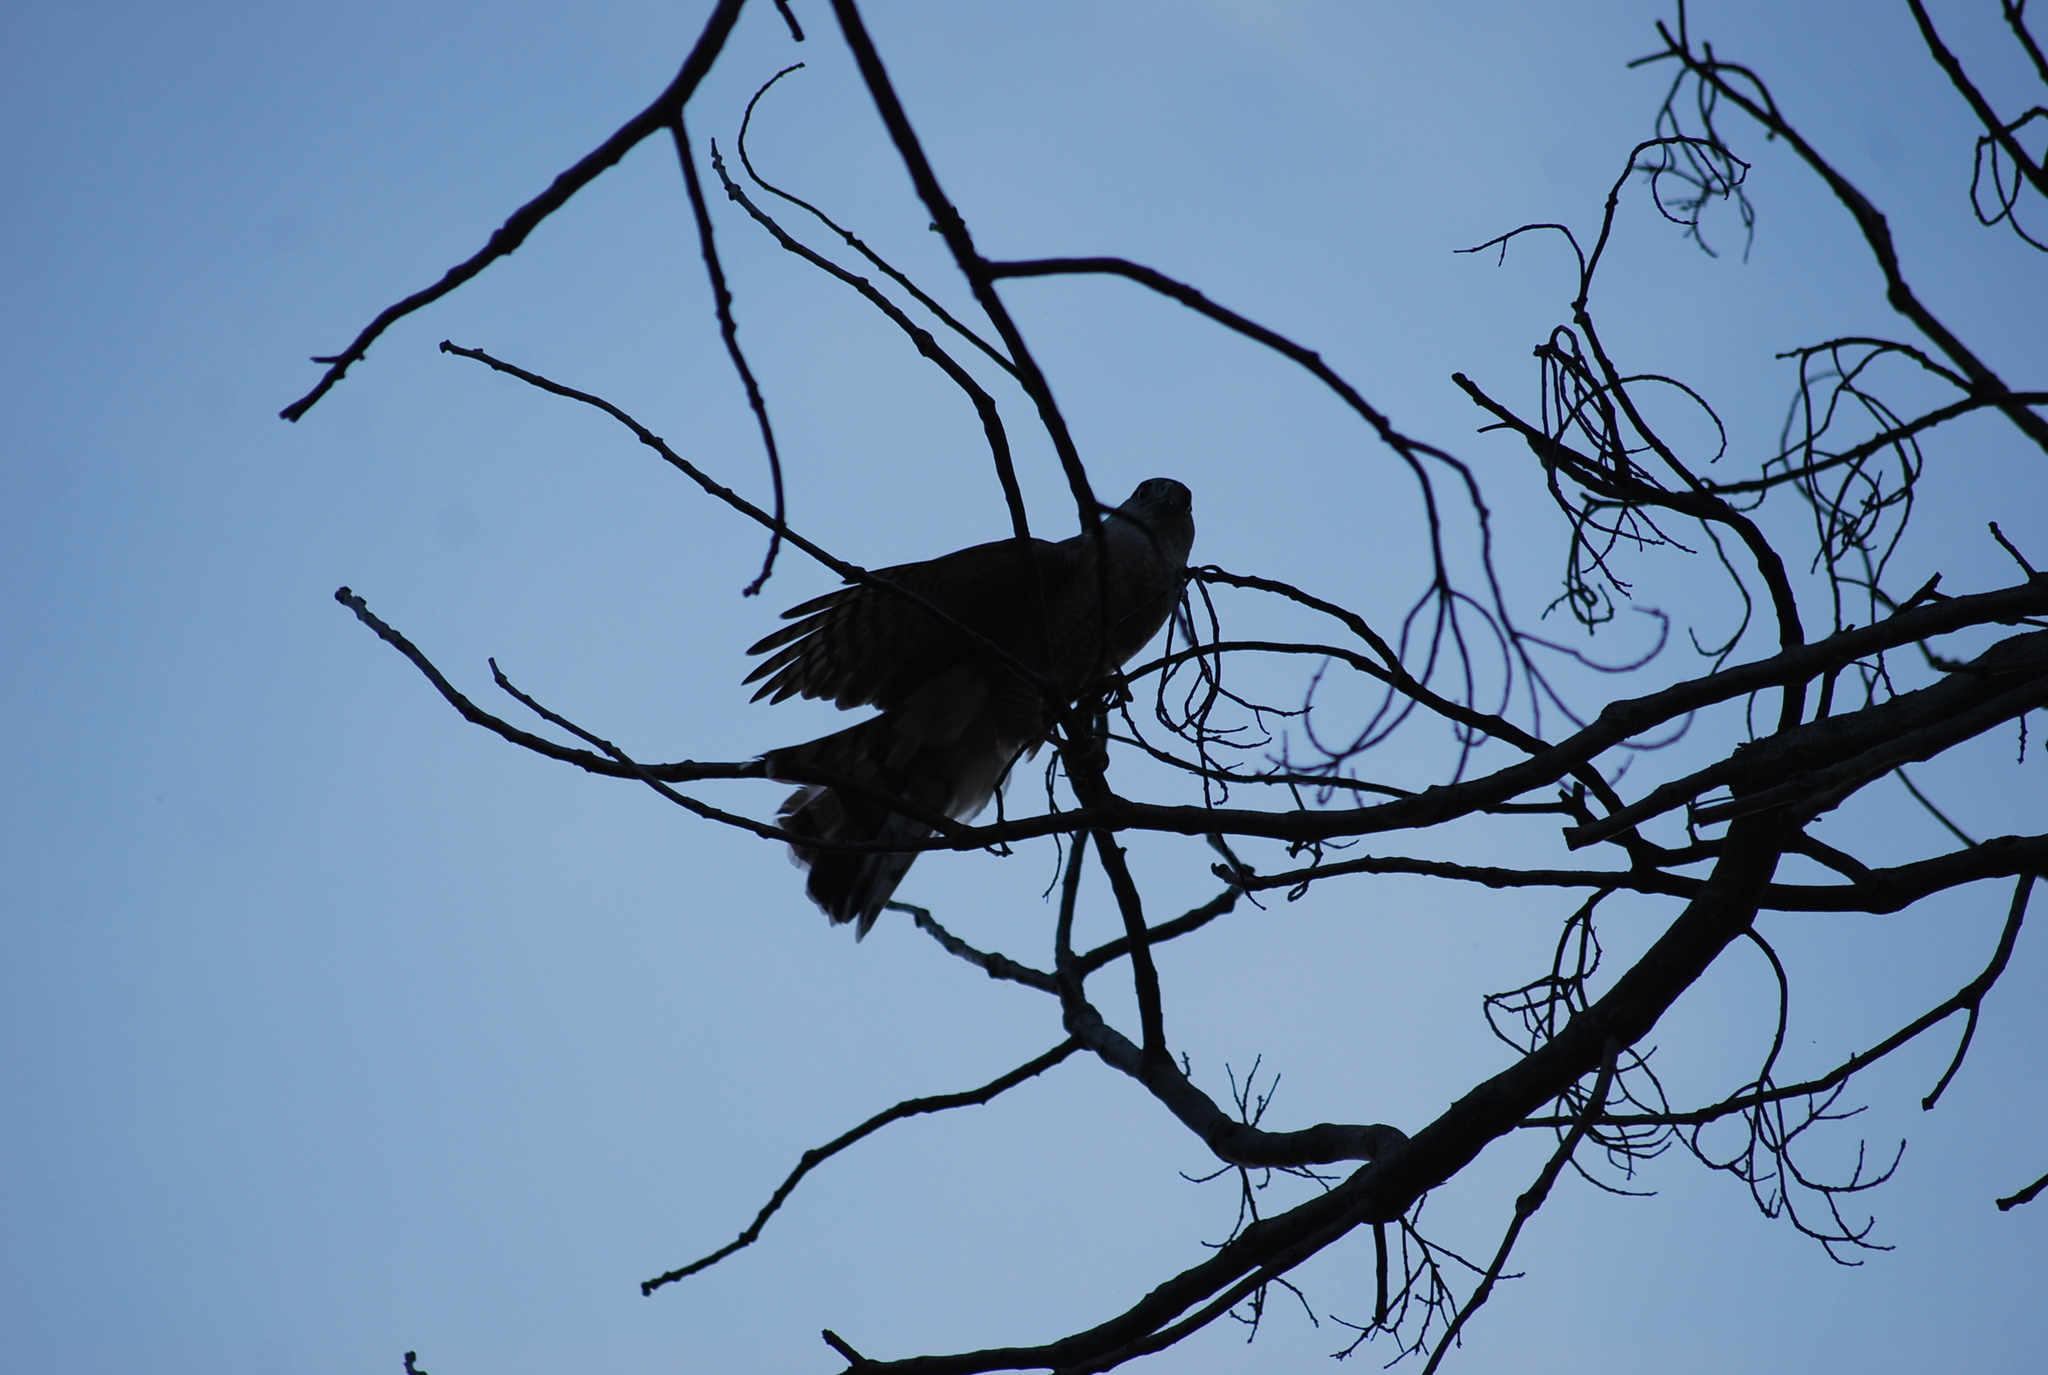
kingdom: Animalia
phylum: Chordata
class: Aves
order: Accipitriformes
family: Accipitridae
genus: Accipiter
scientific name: Accipiter cooperii
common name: Cooper's hawk
